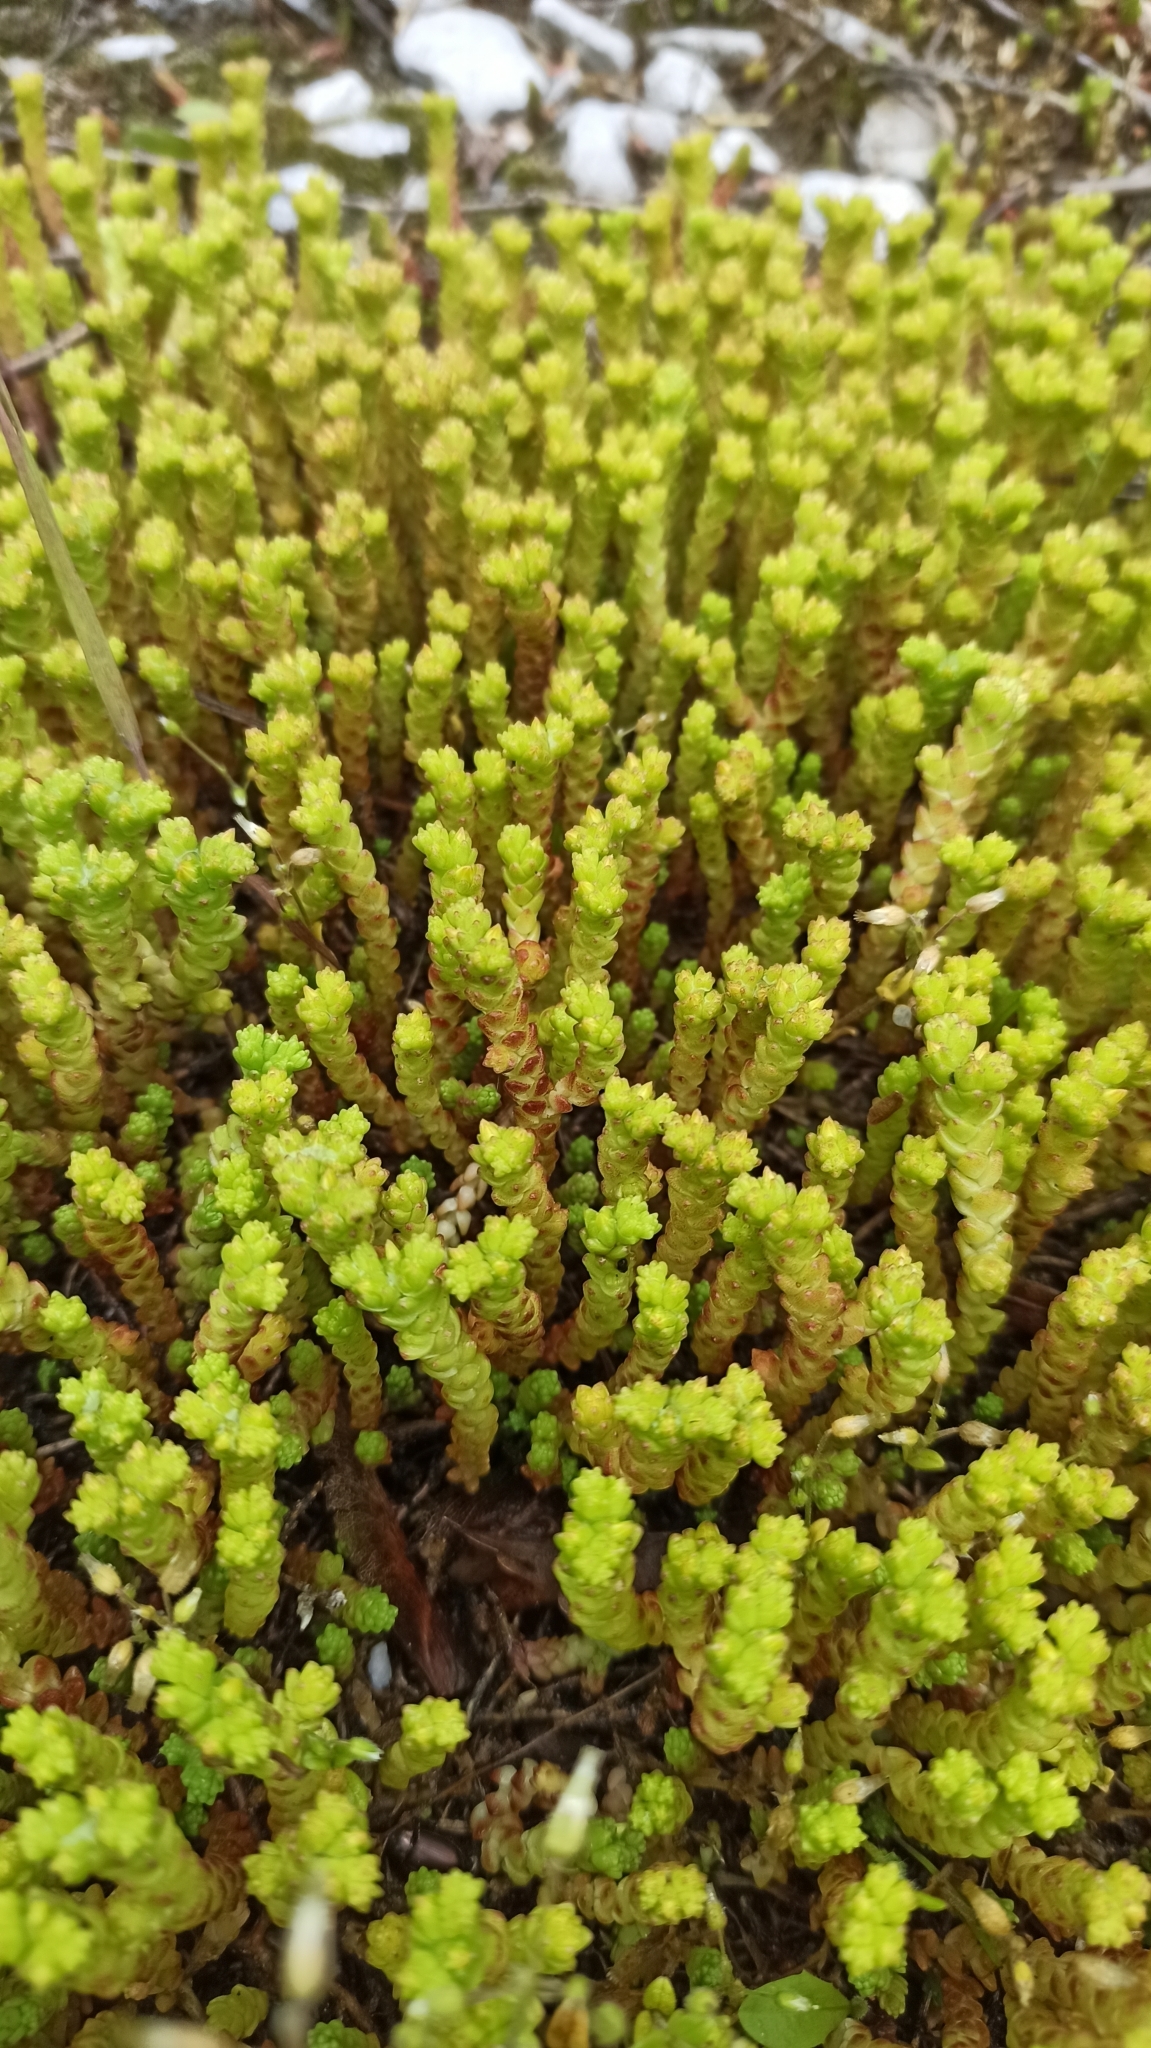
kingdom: Plantae
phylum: Tracheophyta
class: Magnoliopsida
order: Saxifragales
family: Crassulaceae
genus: Sedum
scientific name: Sedum acre
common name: Biting stonecrop
